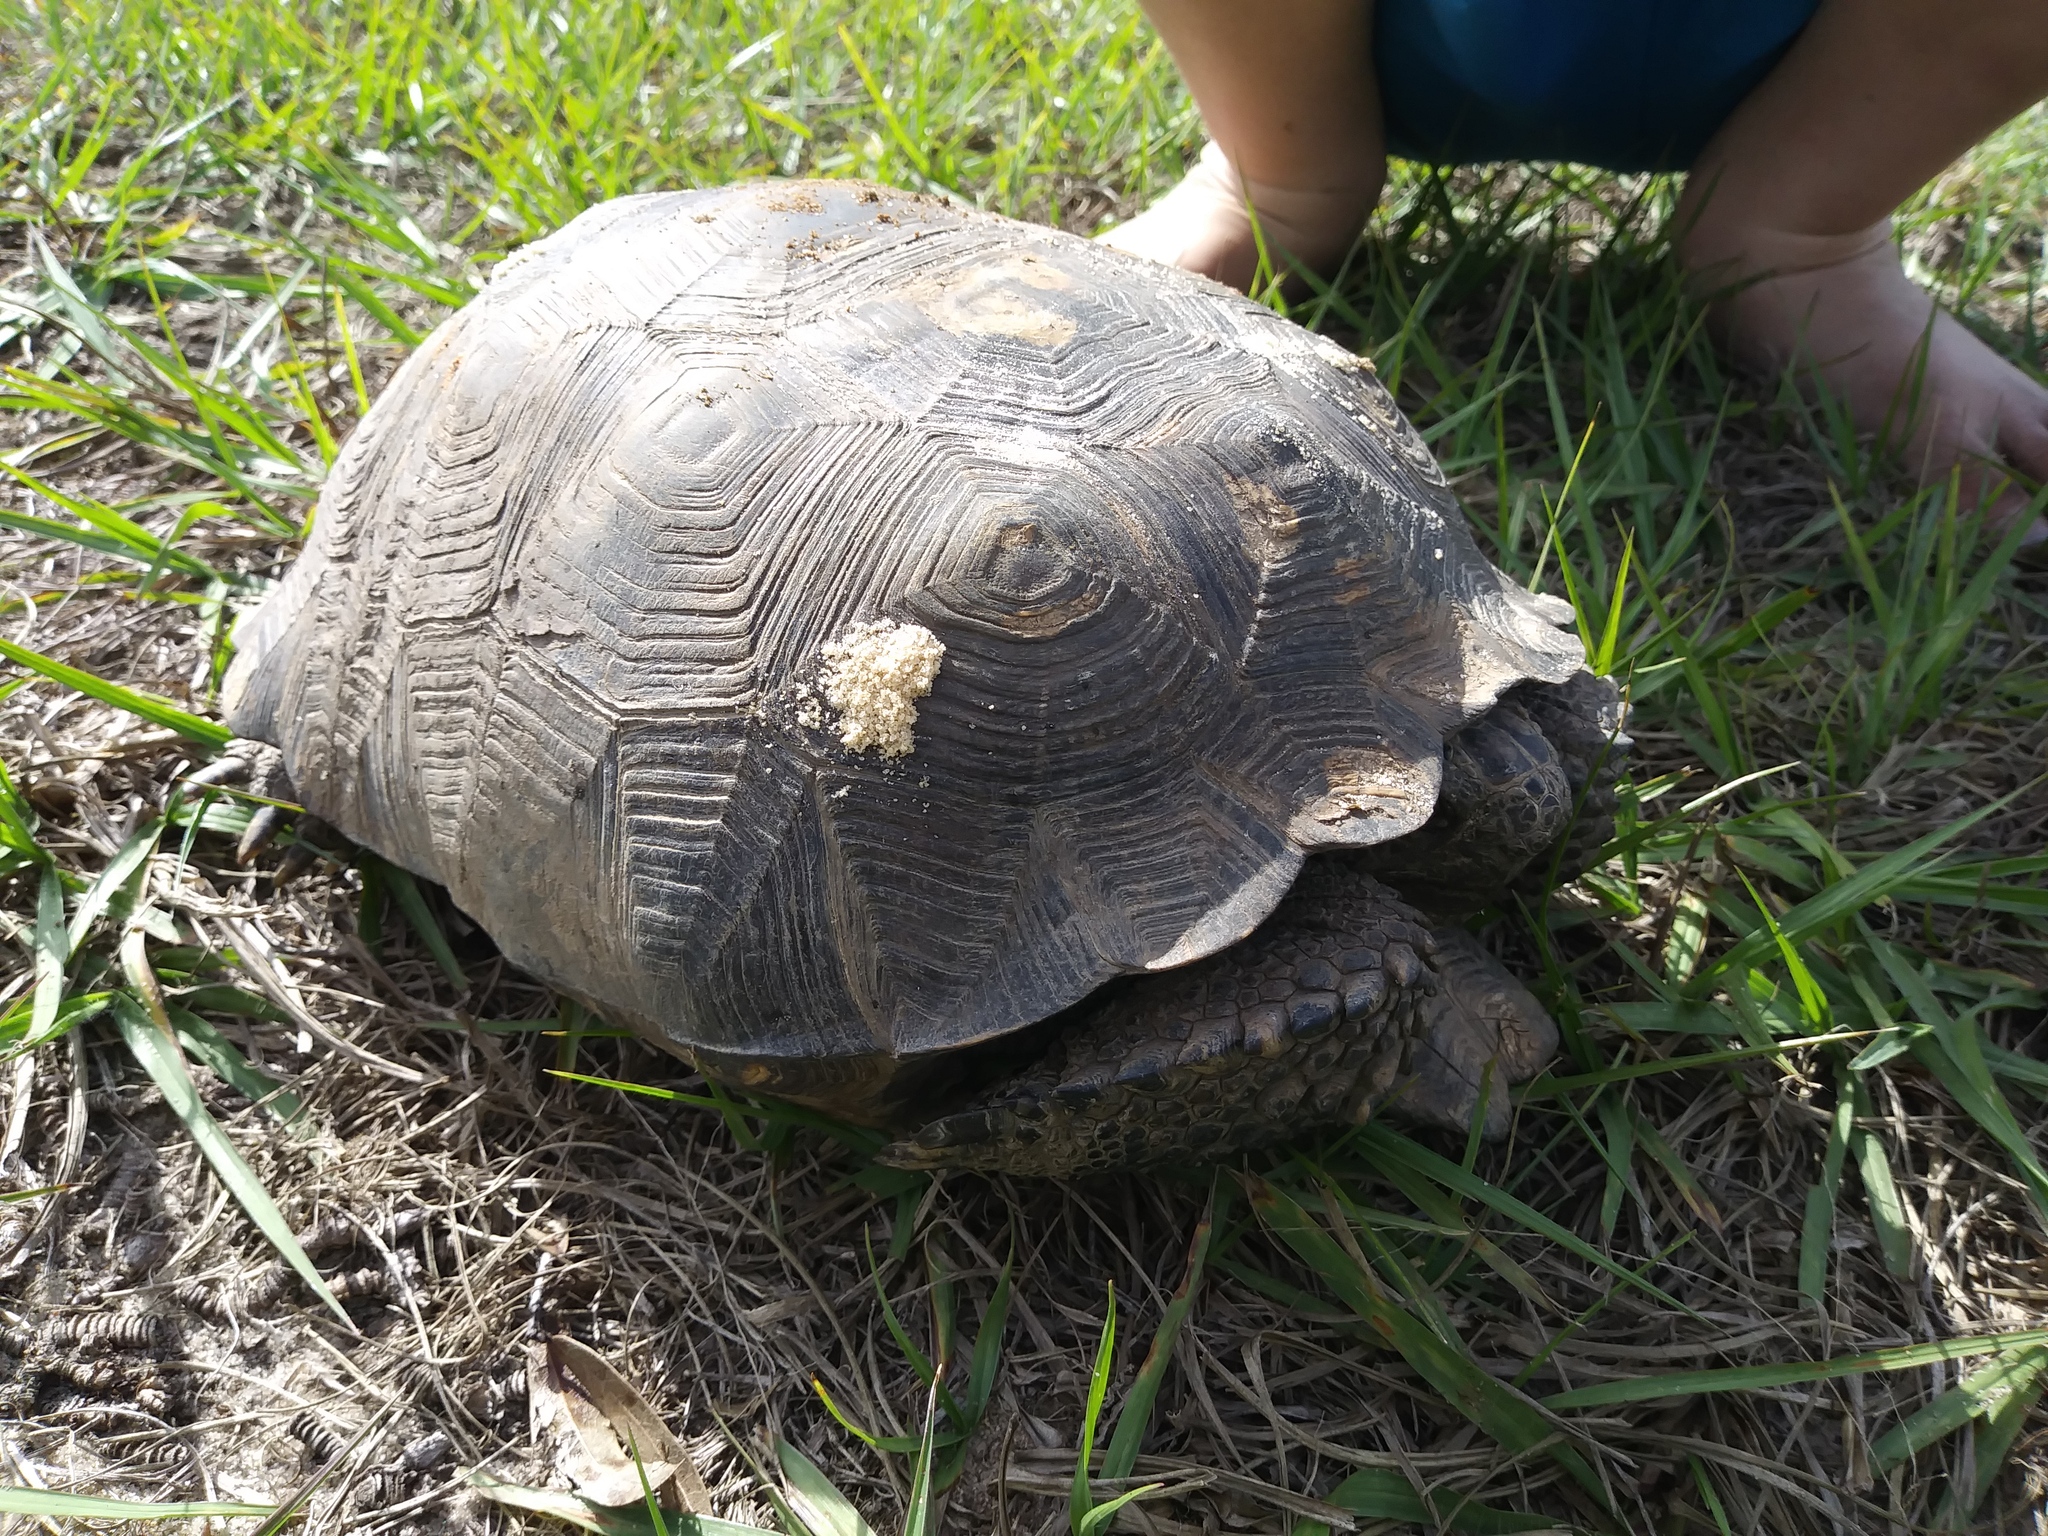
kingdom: Animalia
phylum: Chordata
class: Testudines
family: Testudinidae
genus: Gopherus
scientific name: Gopherus polyphemus
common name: Florida gopher tortoise
